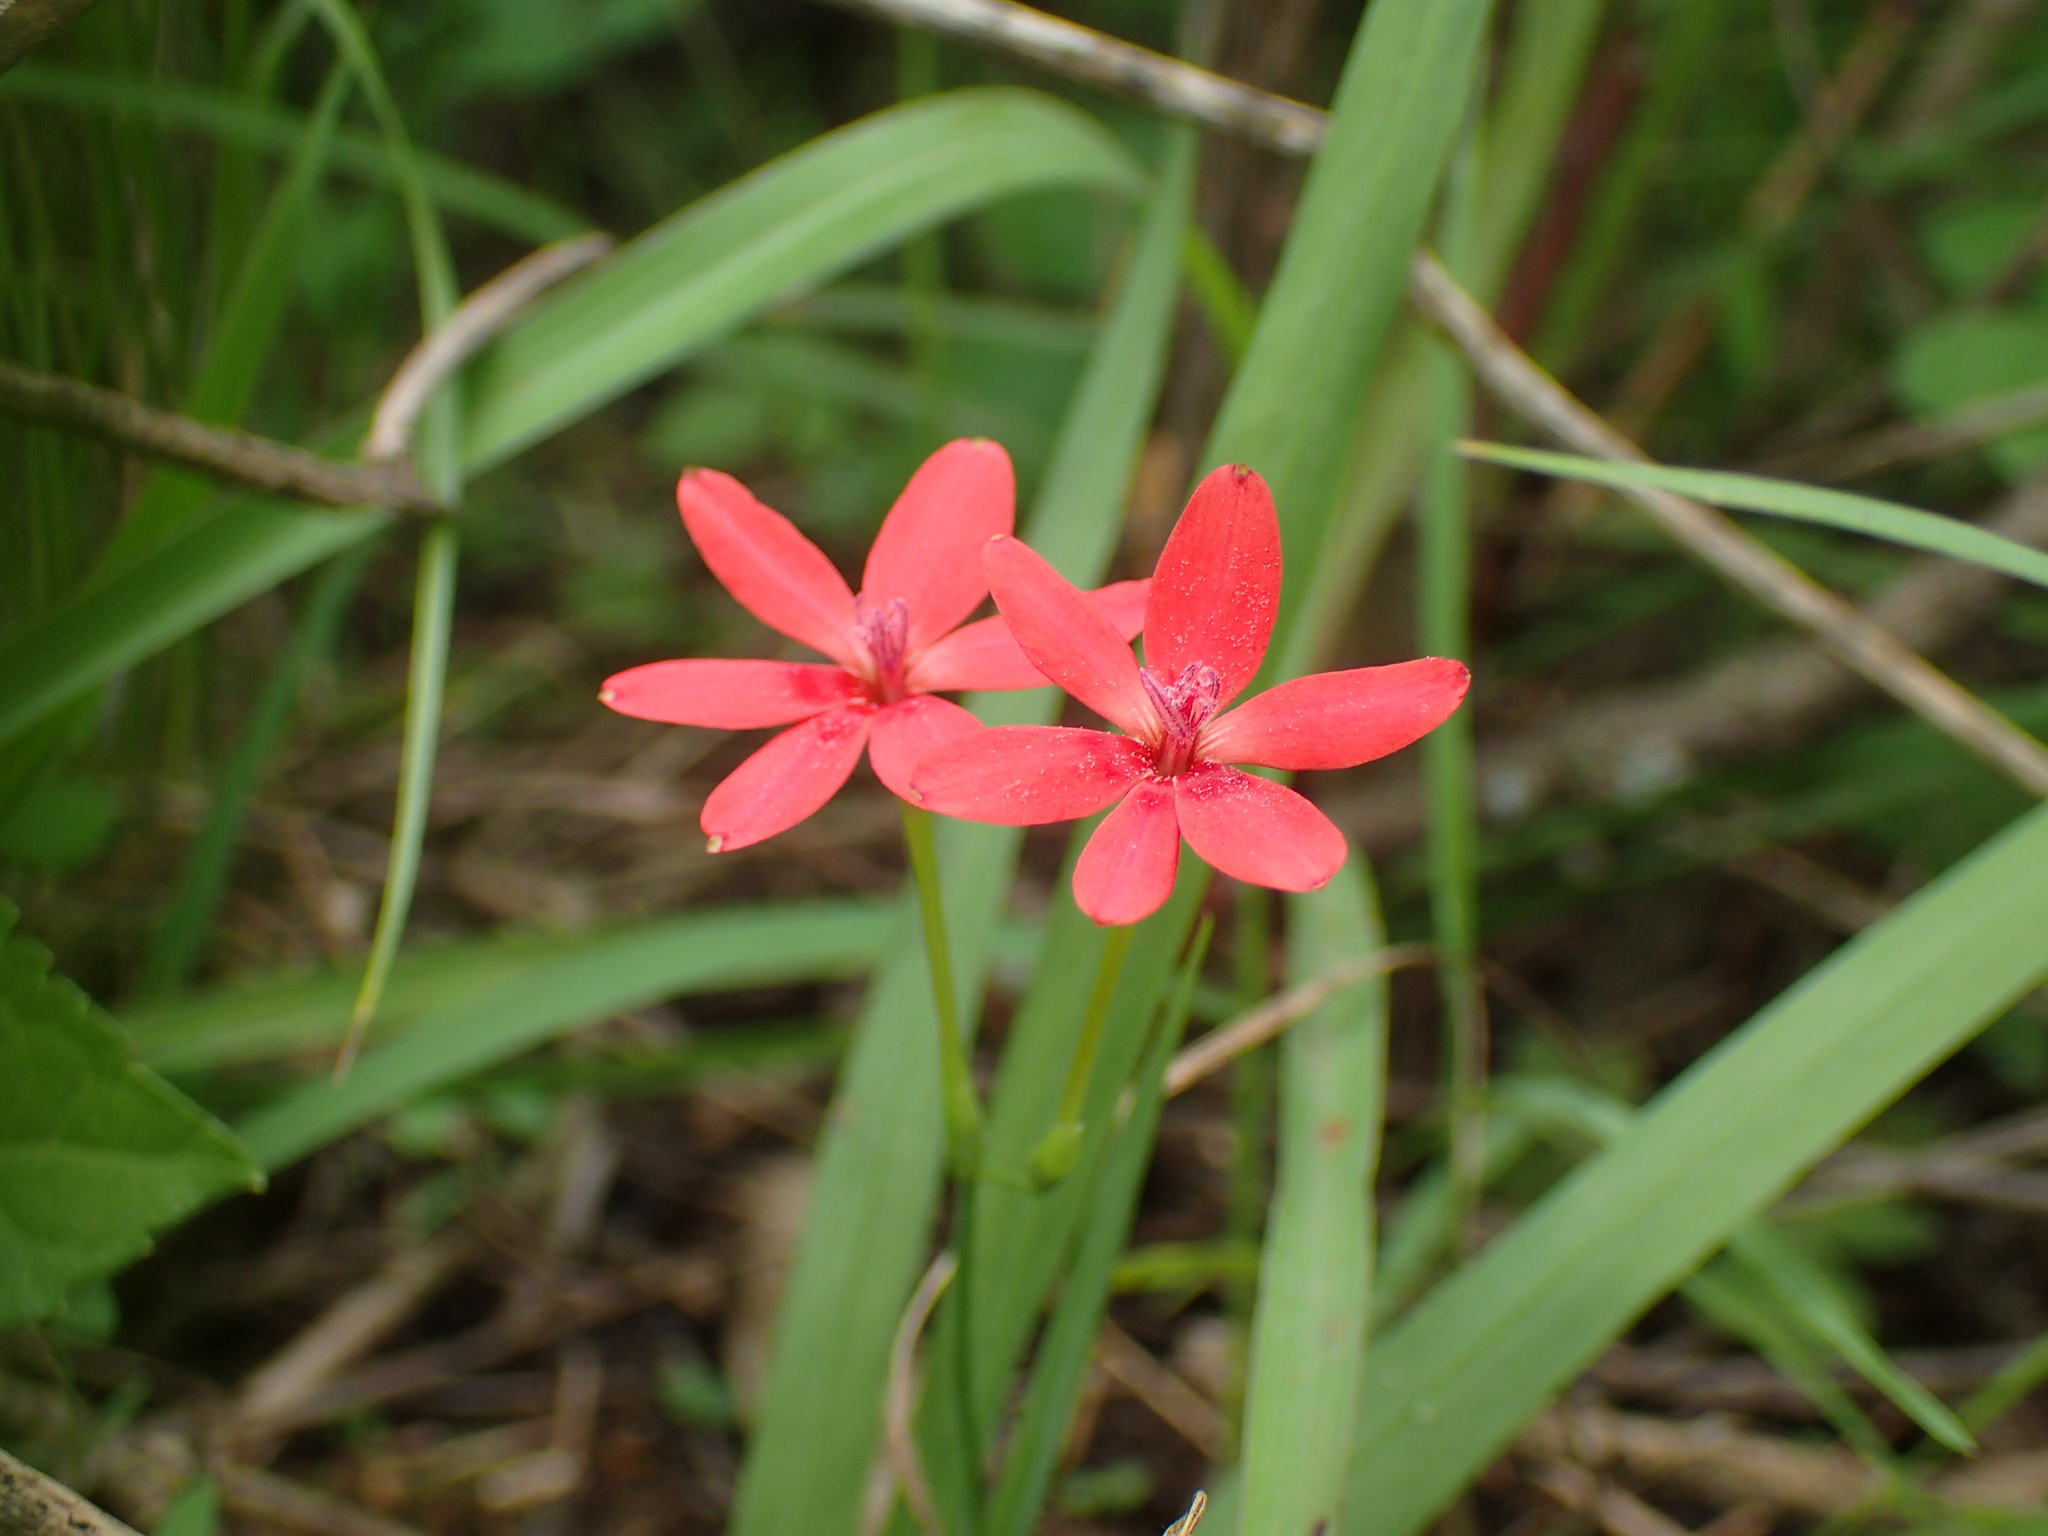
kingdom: Plantae
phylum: Tracheophyta
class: Liliopsida
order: Asparagales
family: Iridaceae
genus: Freesia
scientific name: Freesia laxa
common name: False freesia
